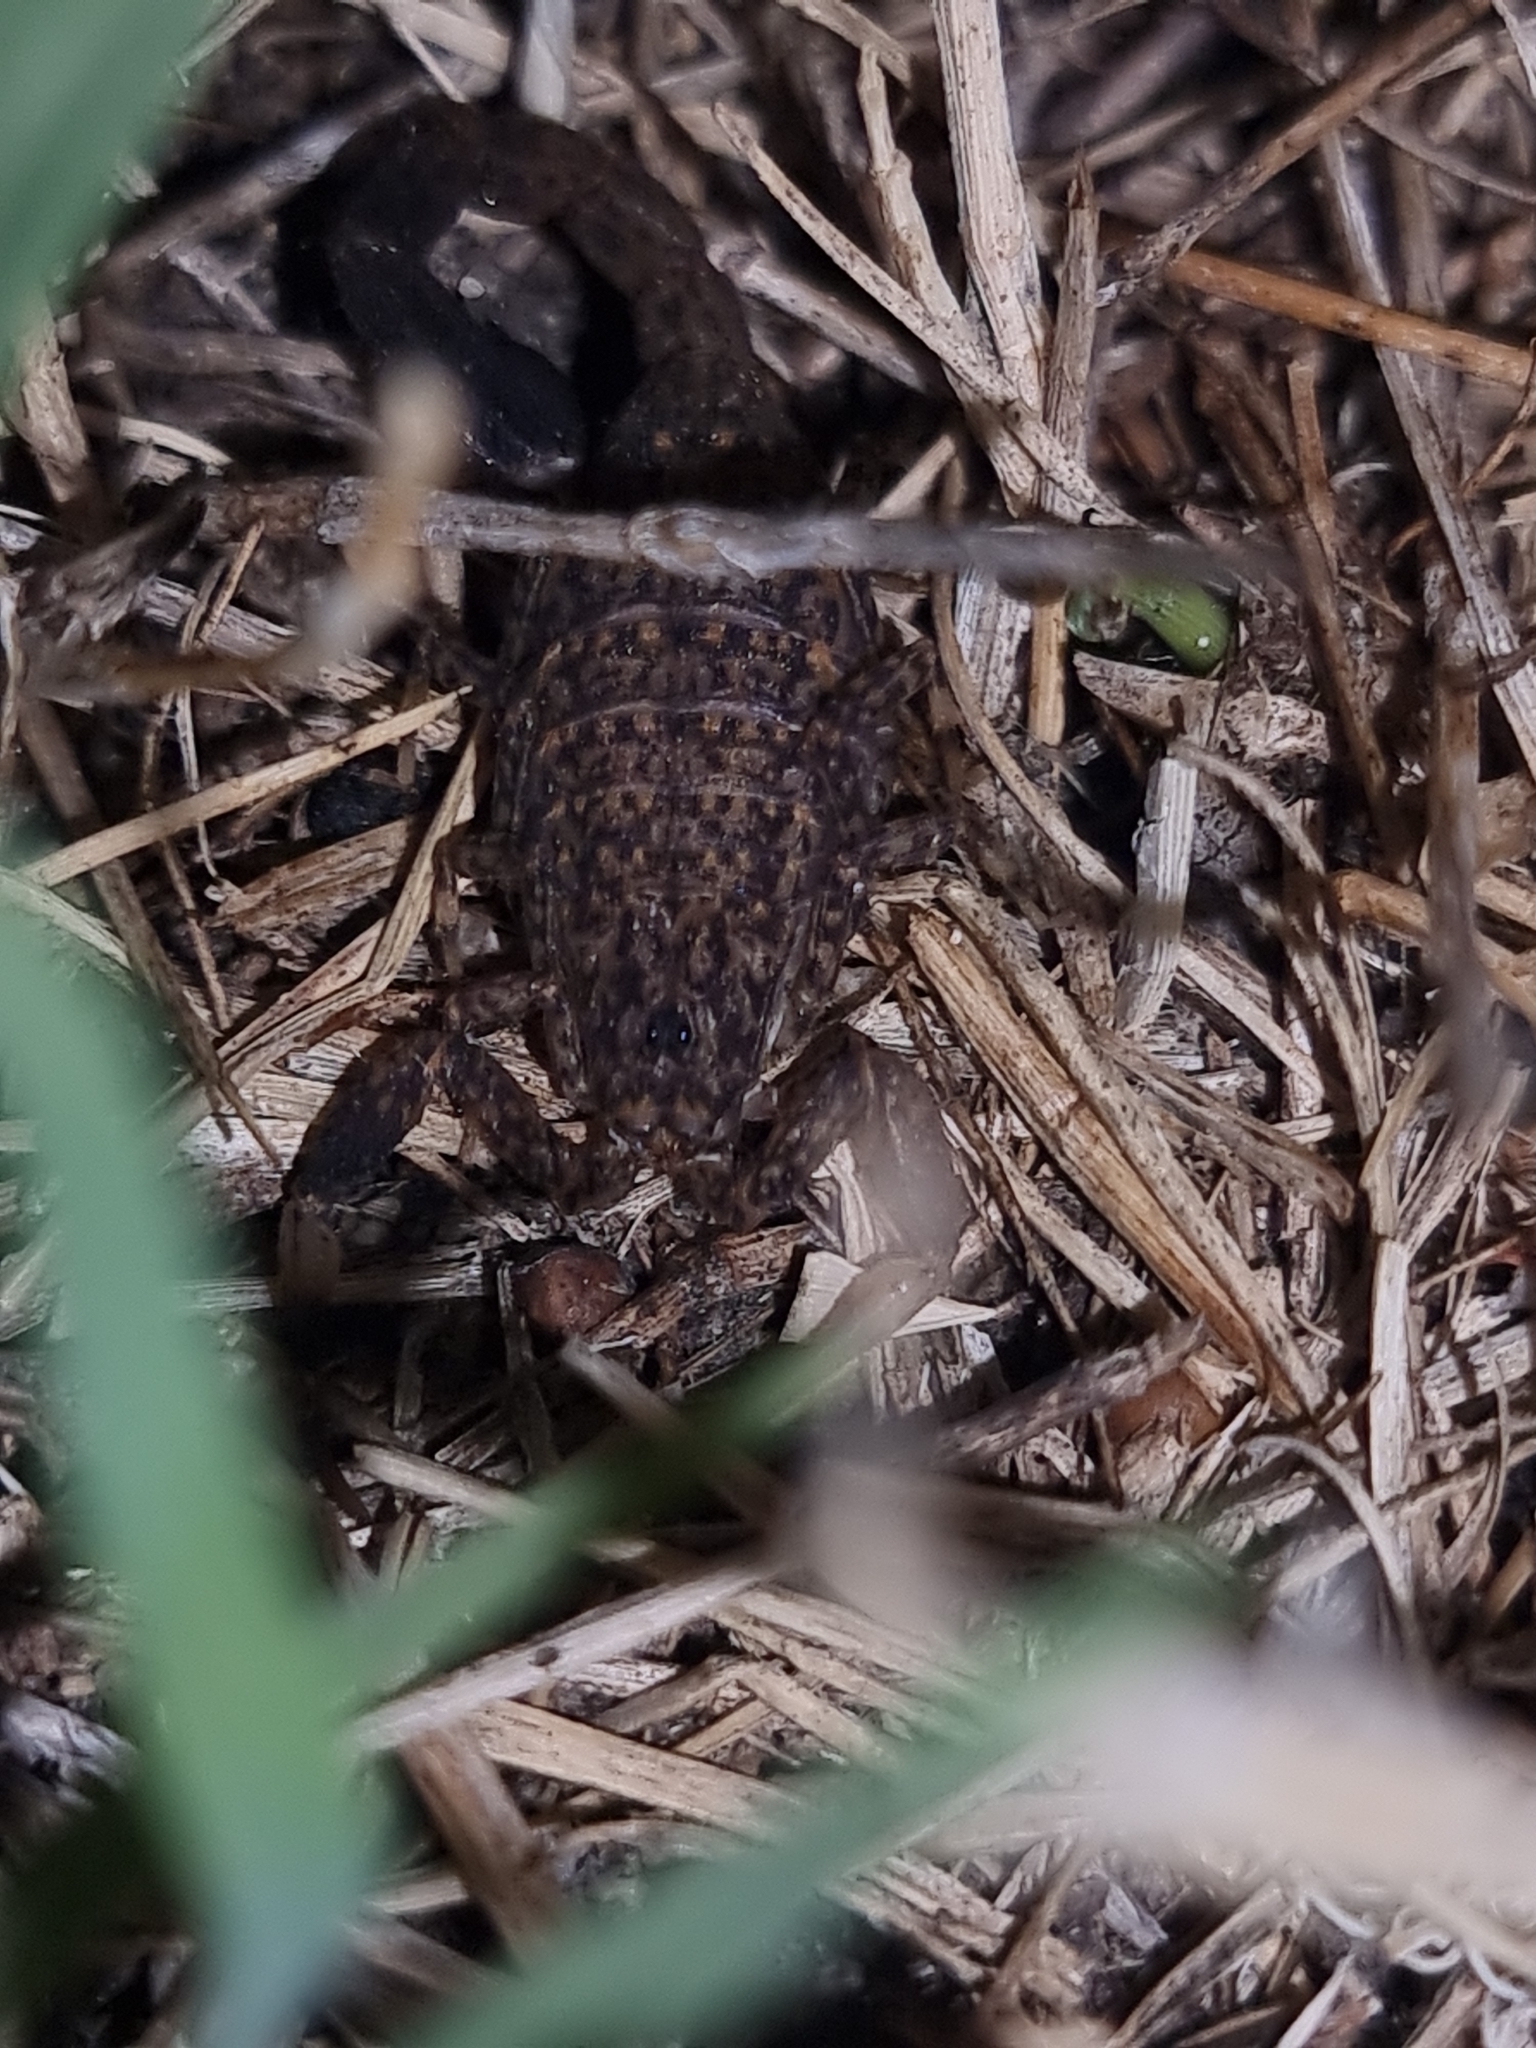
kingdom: Animalia
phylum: Arthropoda
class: Arachnida
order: Scorpiones
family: Buthidae
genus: Lychas
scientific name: Lychas marmoreus
